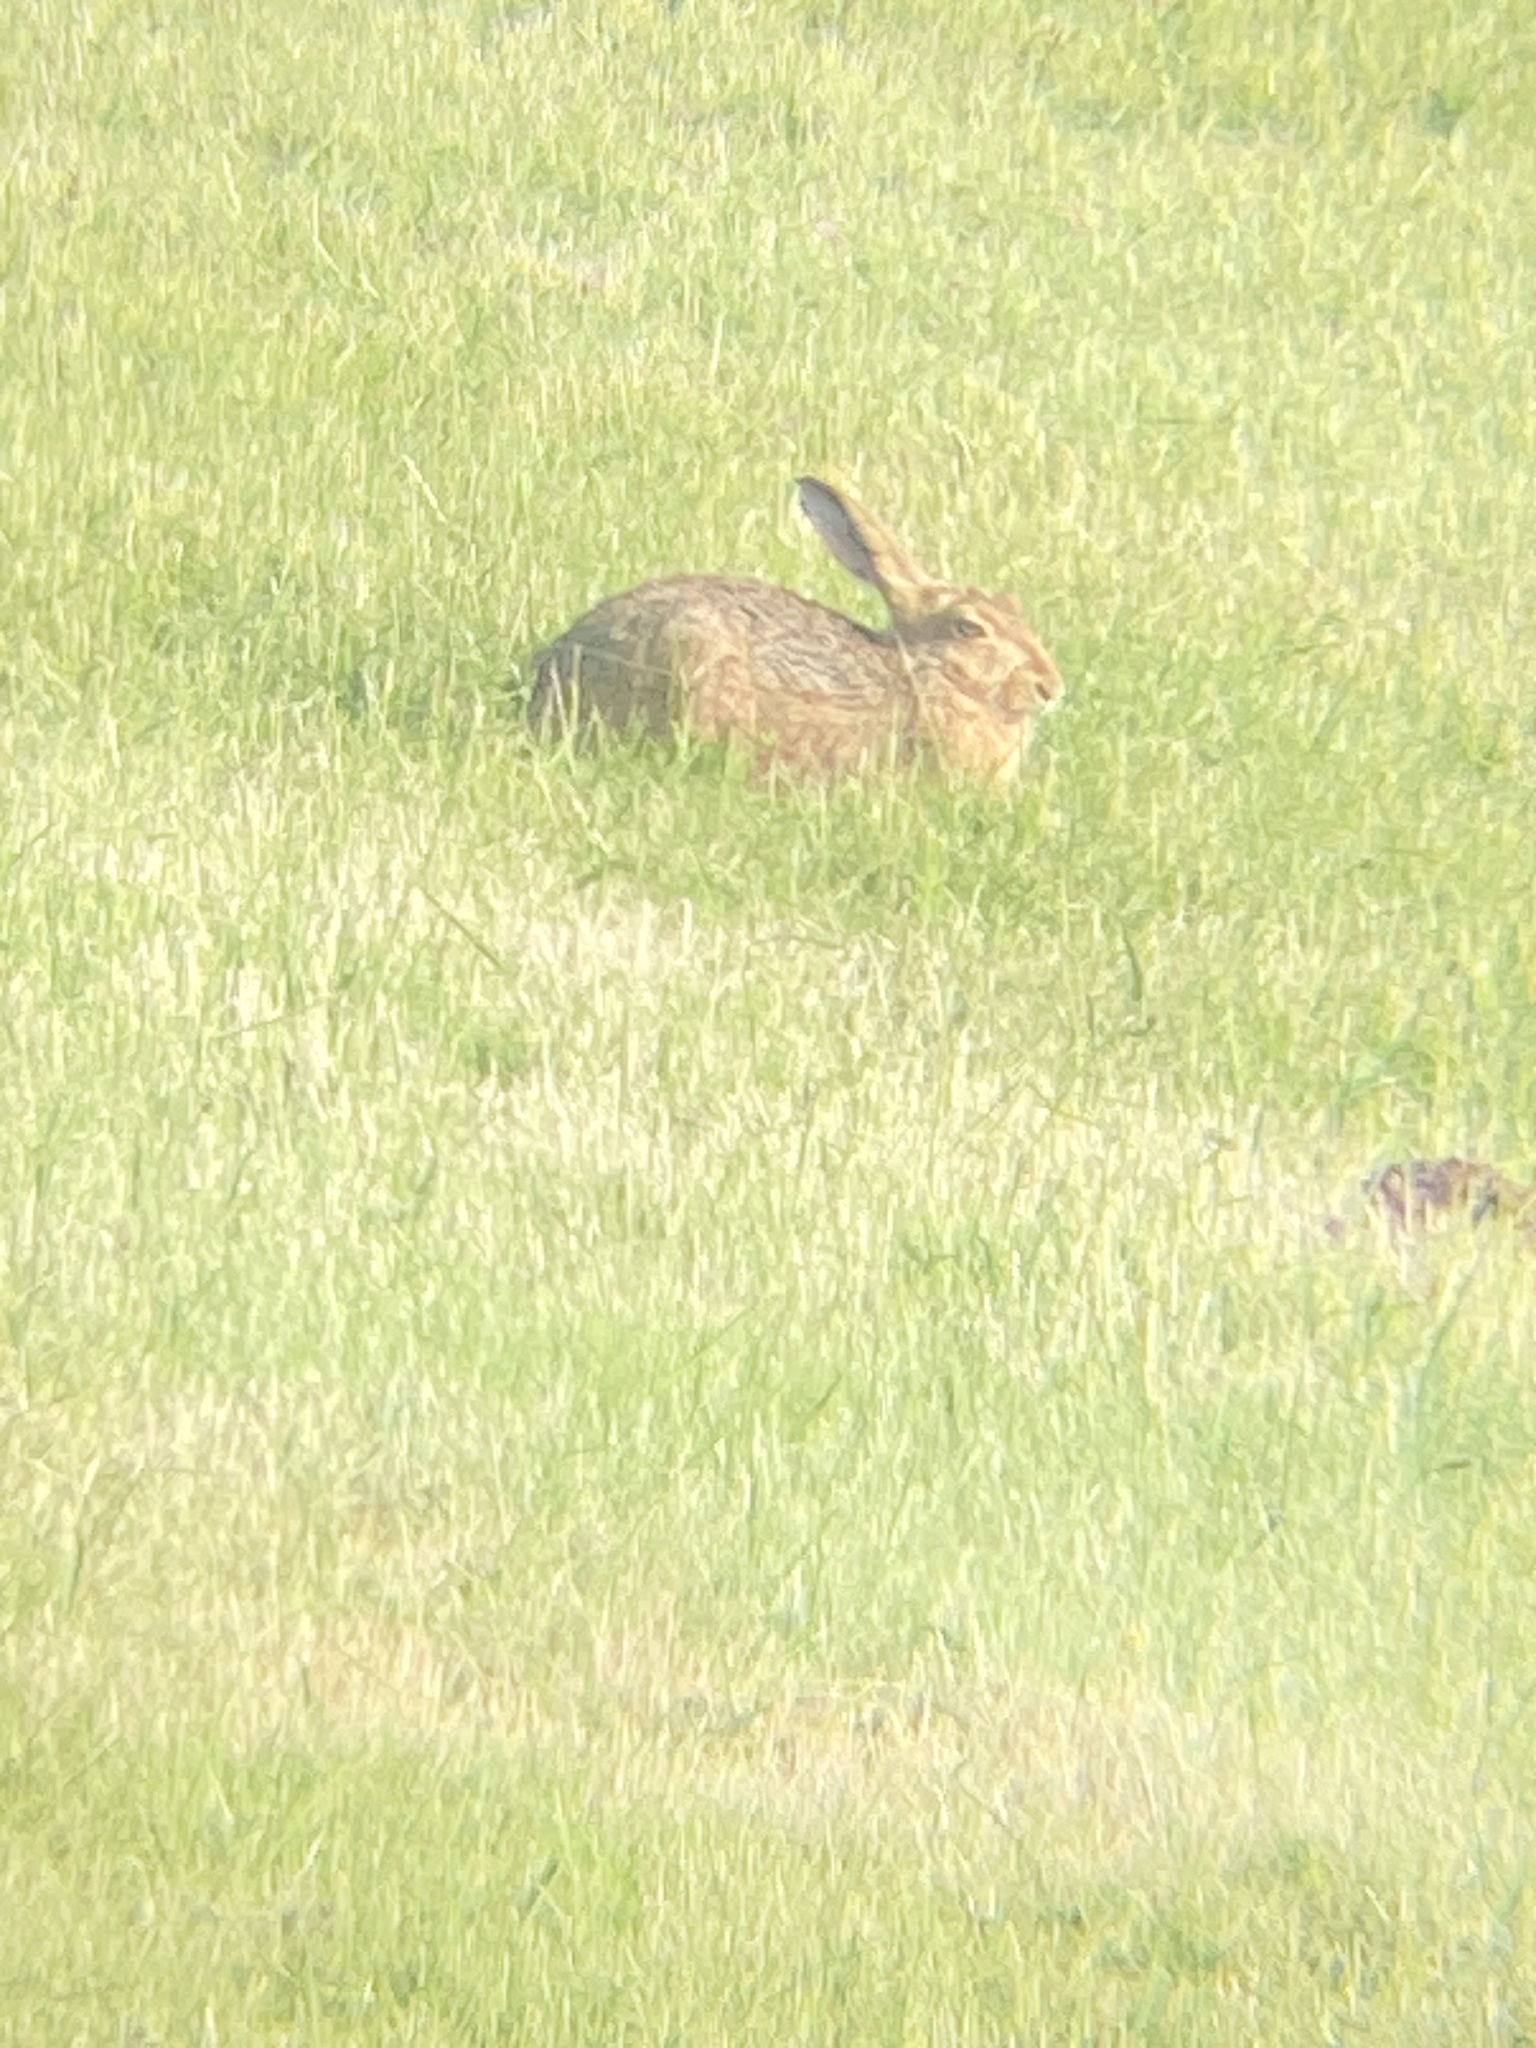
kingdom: Animalia
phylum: Chordata
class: Mammalia
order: Lagomorpha
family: Leporidae
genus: Lepus
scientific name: Lepus europaeus
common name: European hare
